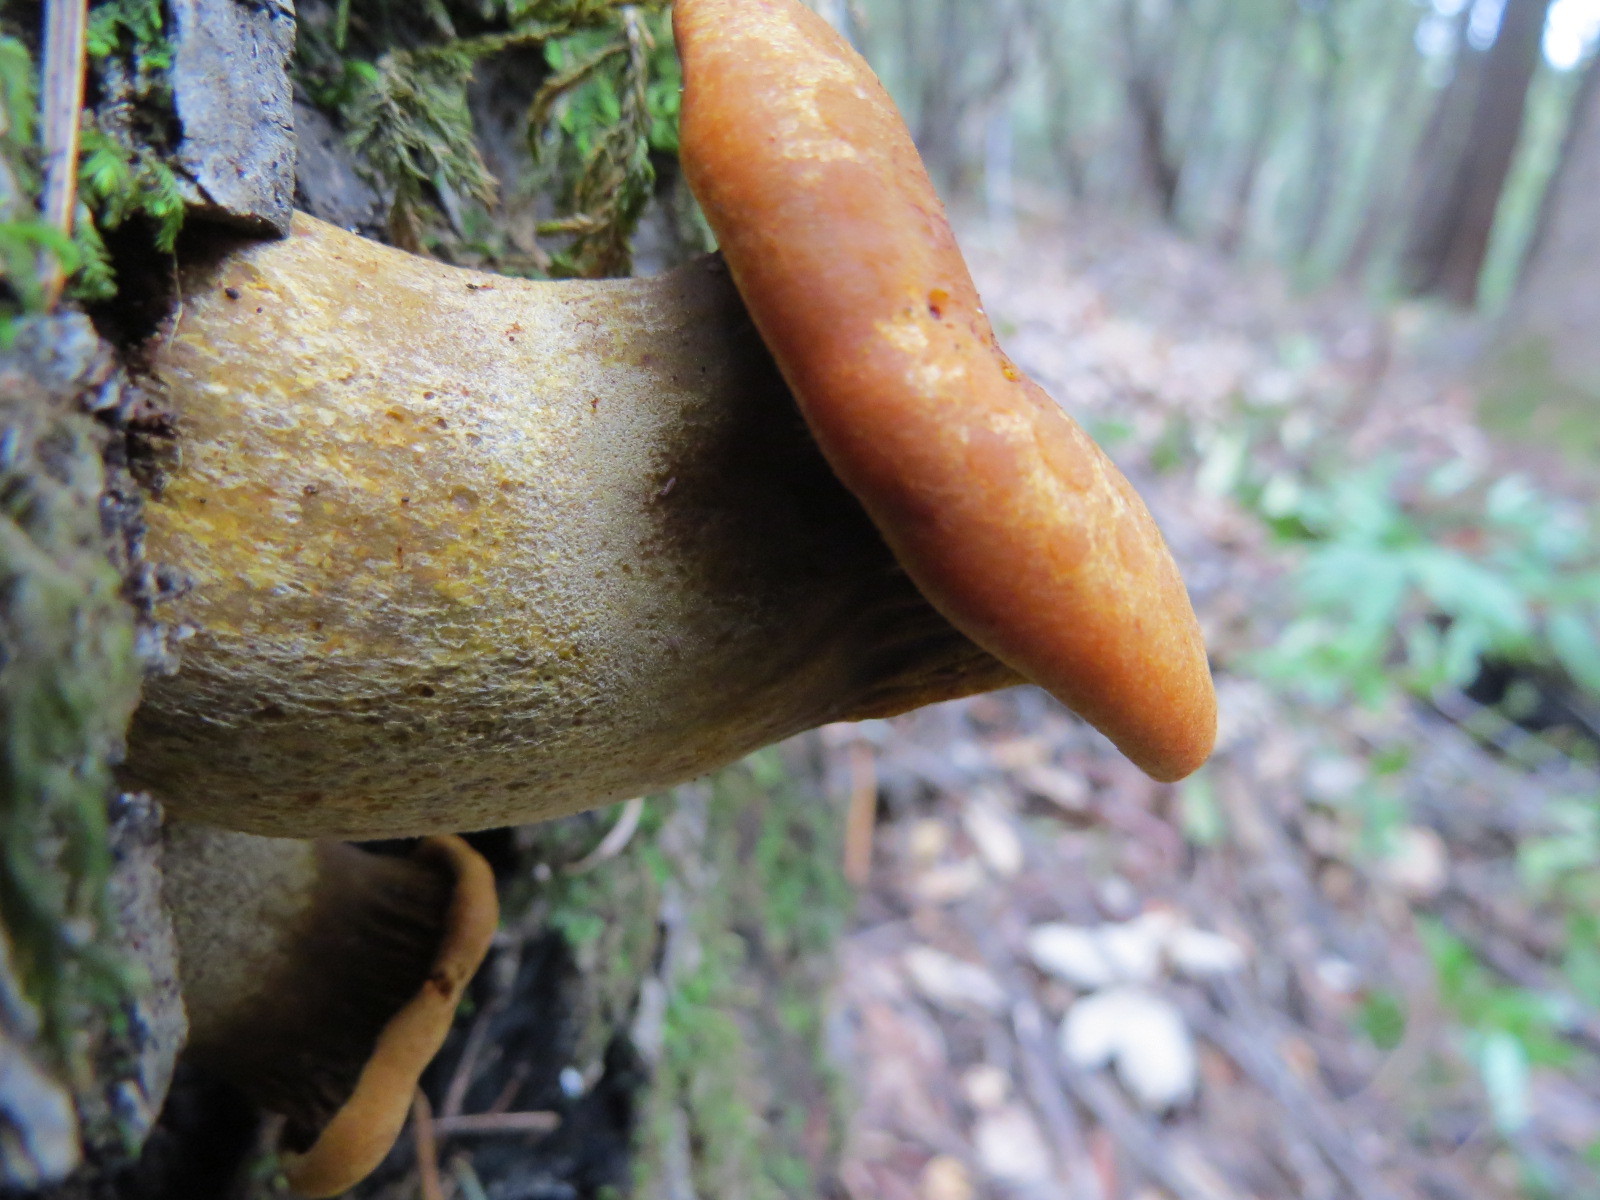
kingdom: Fungi
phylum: Basidiomycota
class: Agaricomycetes
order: Agaricales
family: Omphalotaceae
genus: Omphalotus
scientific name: Omphalotus olivascens
